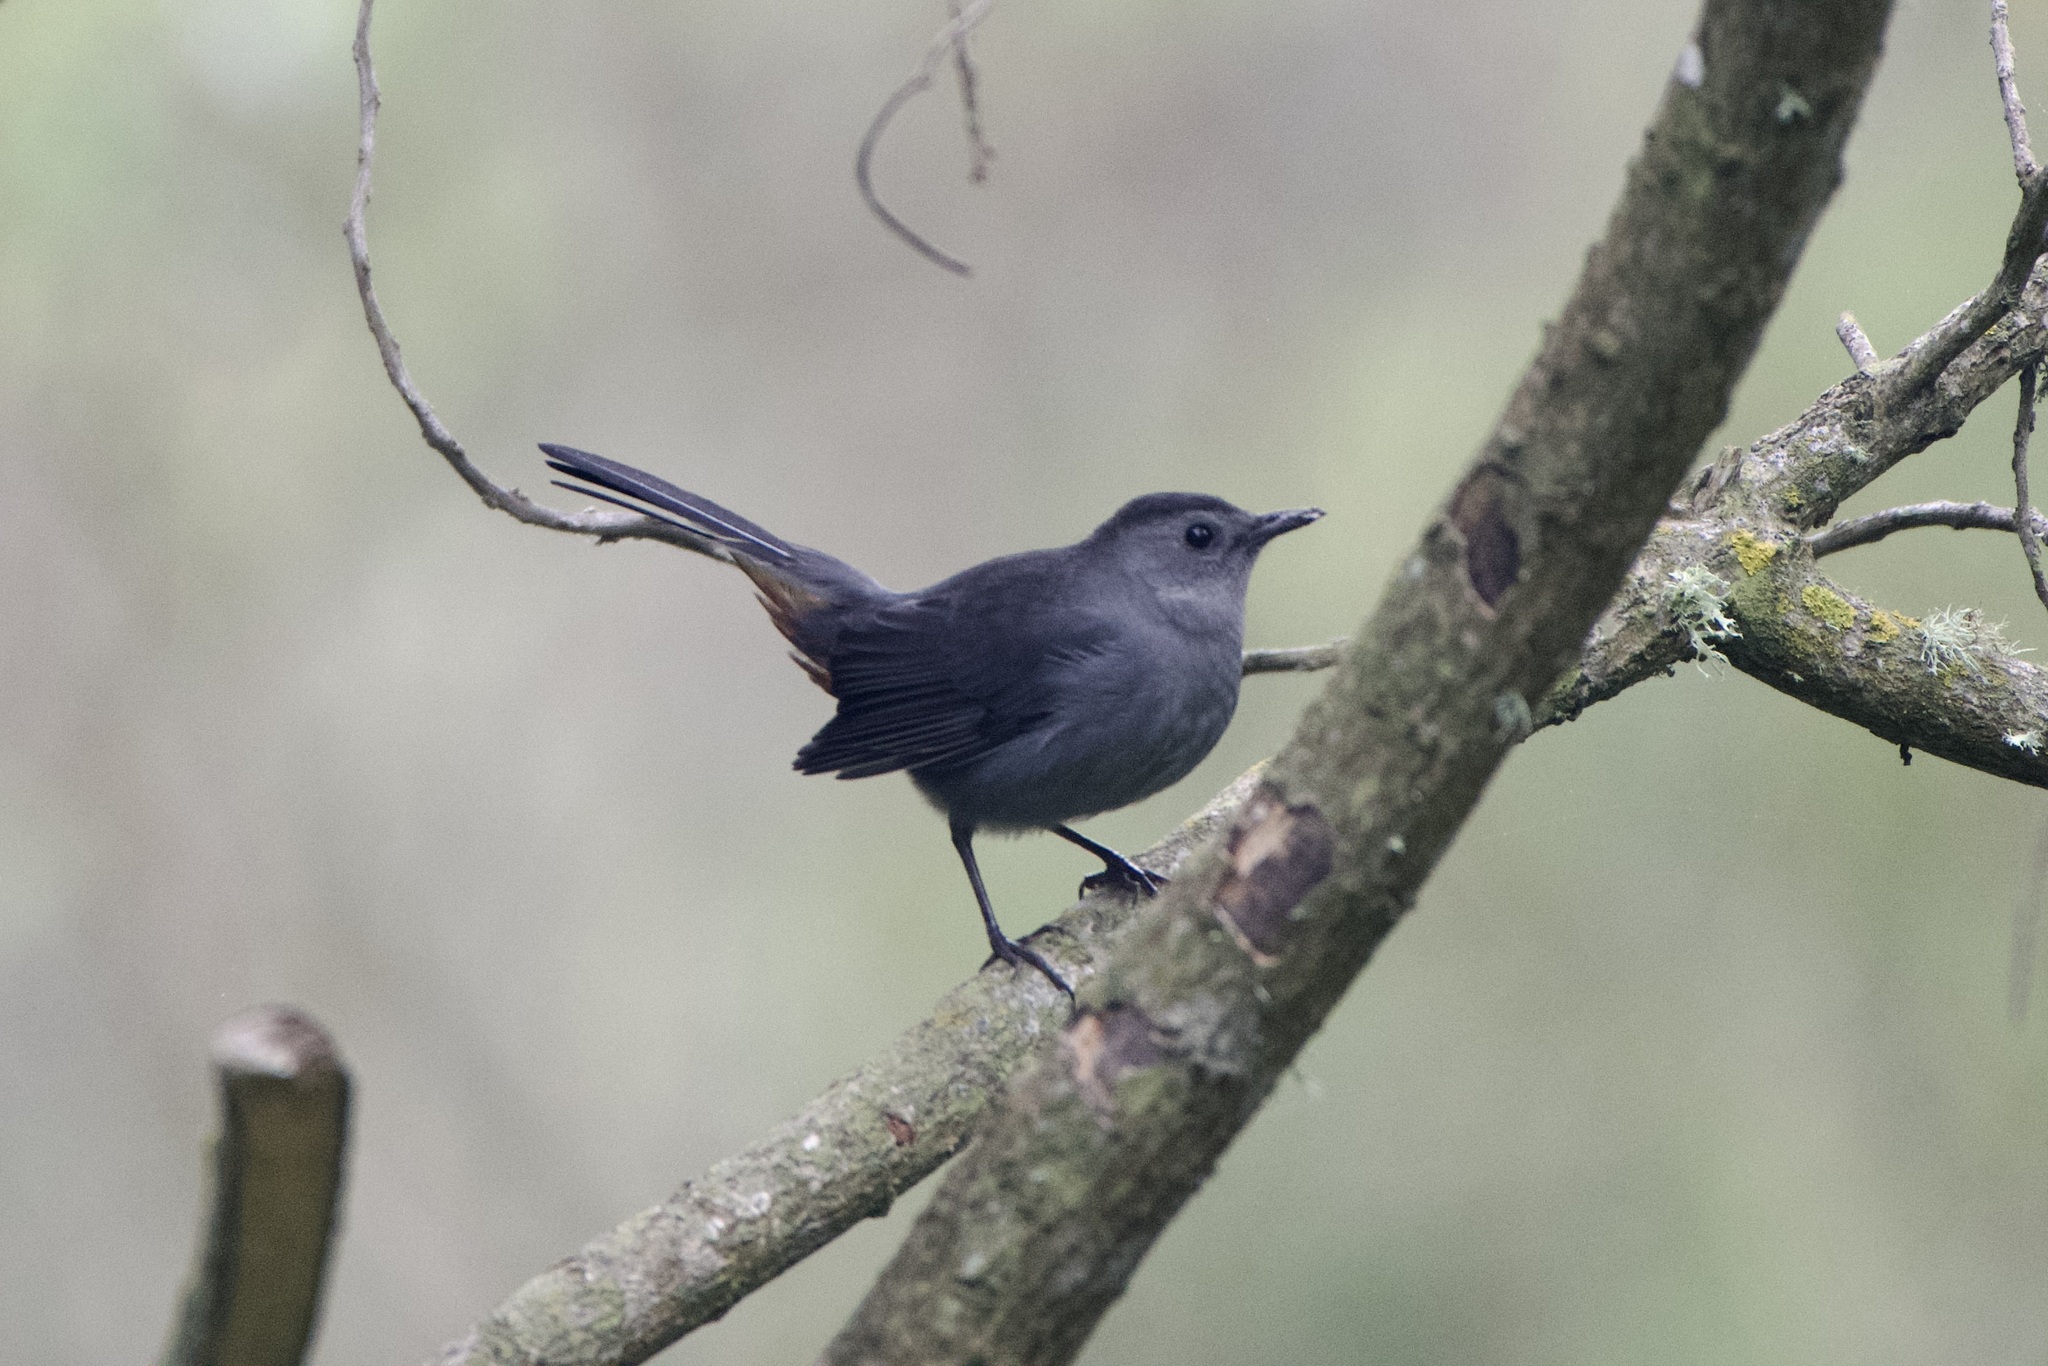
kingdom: Animalia
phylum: Chordata
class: Aves
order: Passeriformes
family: Mimidae
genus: Dumetella
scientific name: Dumetella carolinensis
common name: Gray catbird
